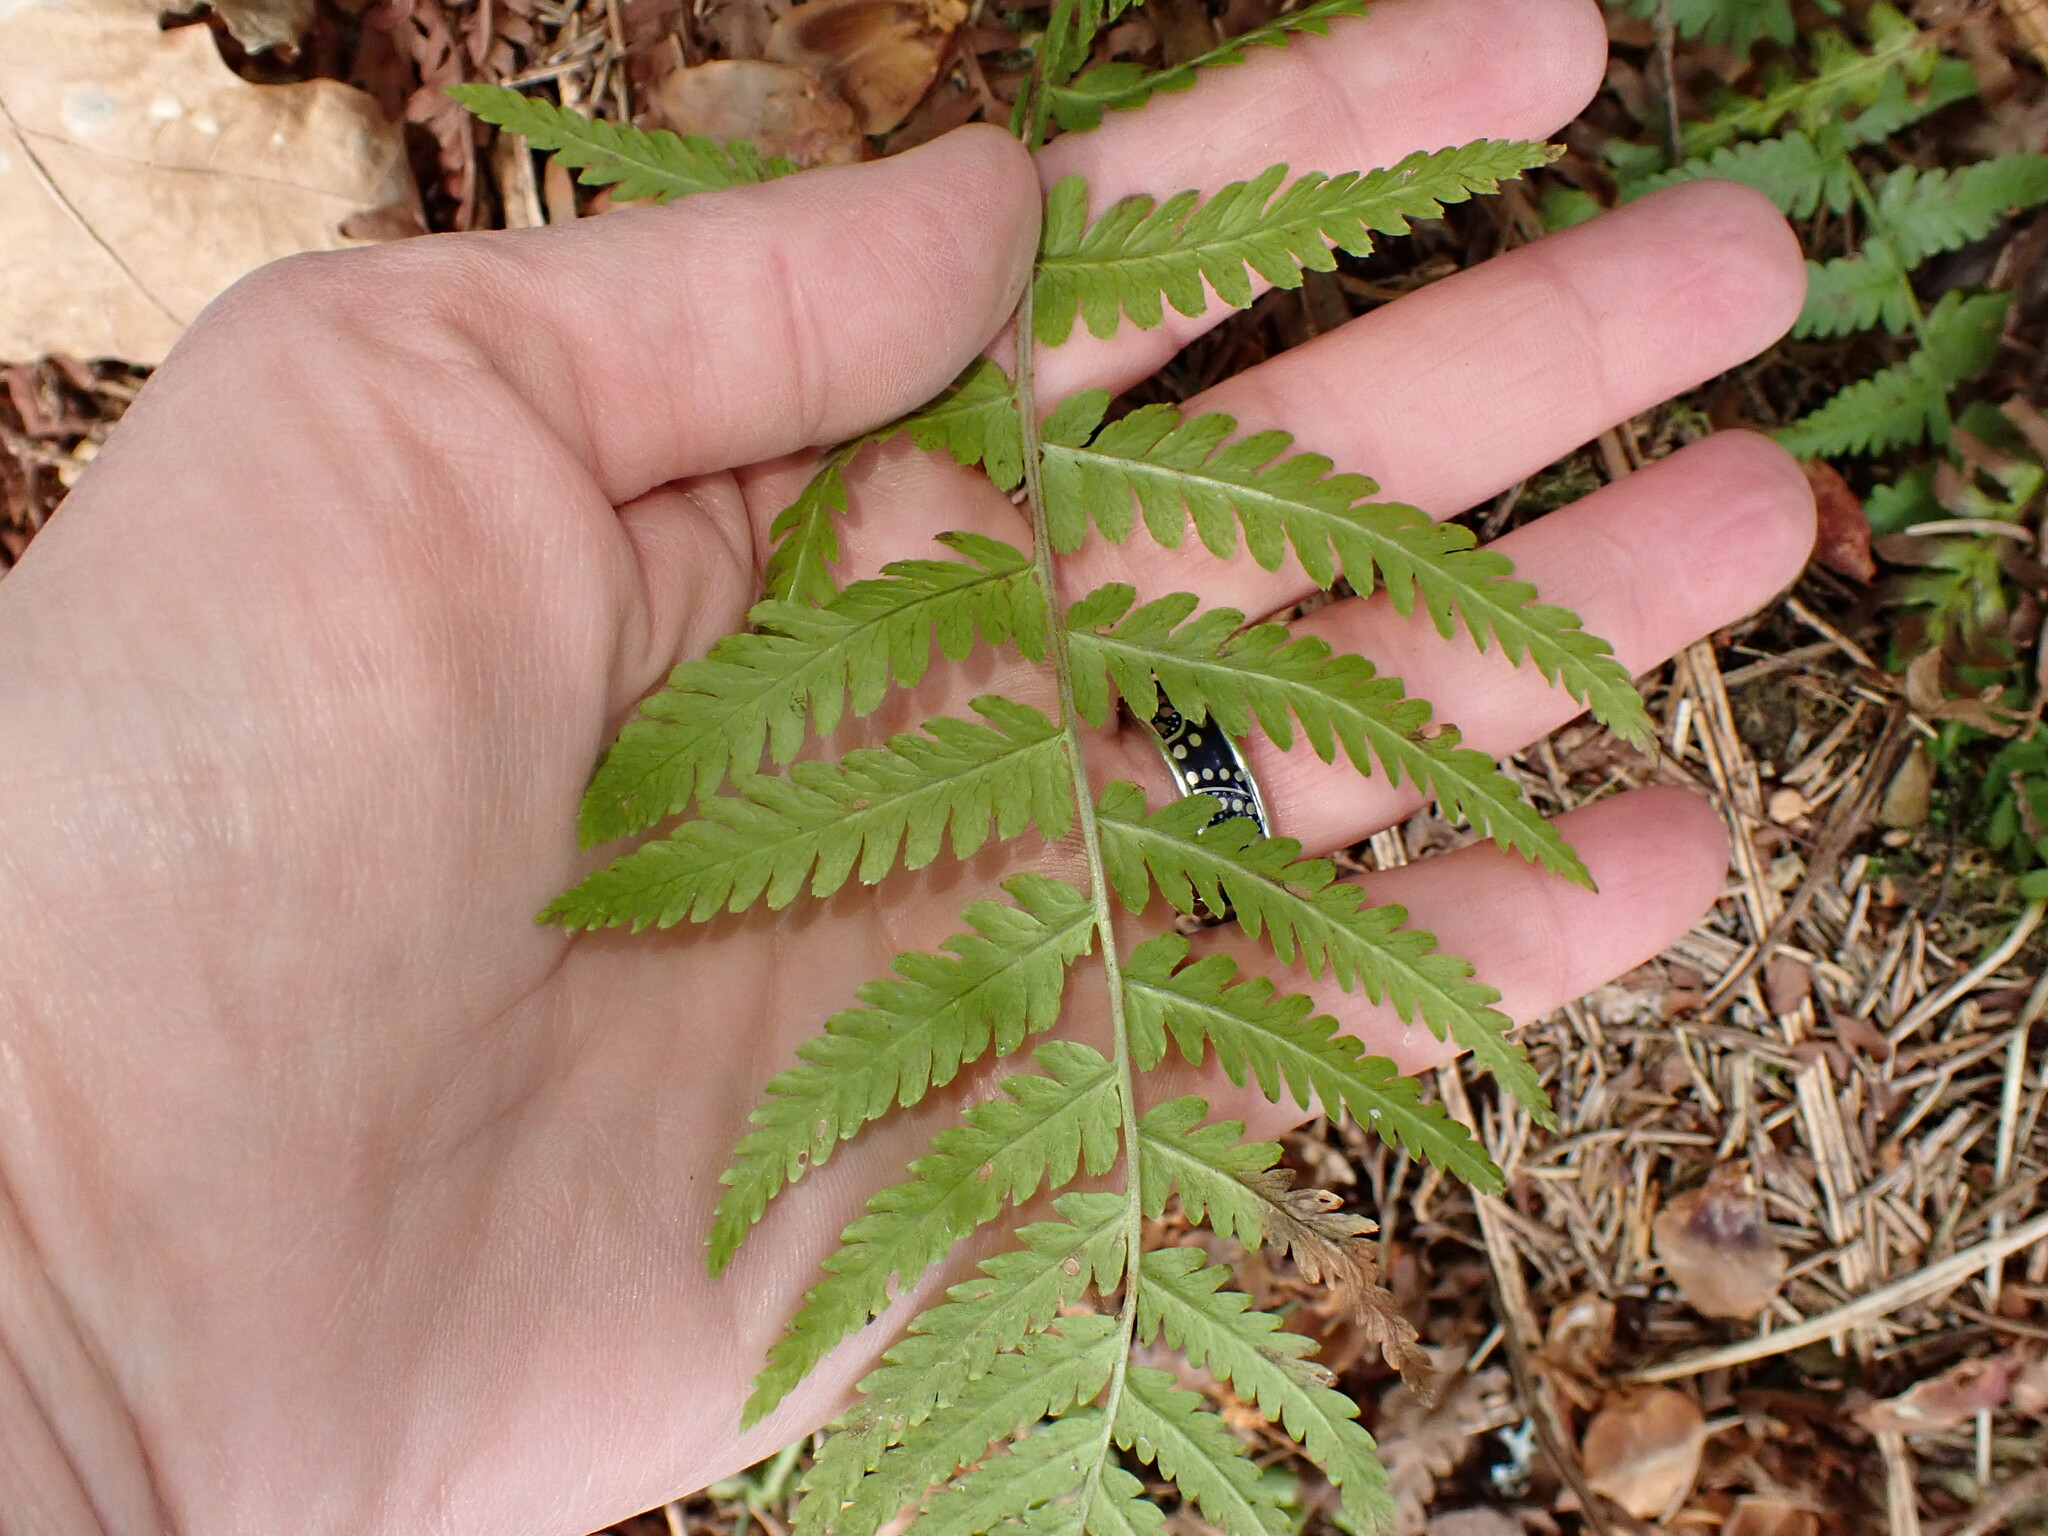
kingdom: Plantae
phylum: Tracheophyta
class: Polypodiopsida
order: Polypodiales
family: Dryopteridaceae
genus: Dryopteris
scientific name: Dryopteris filix-mas
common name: Male fern
